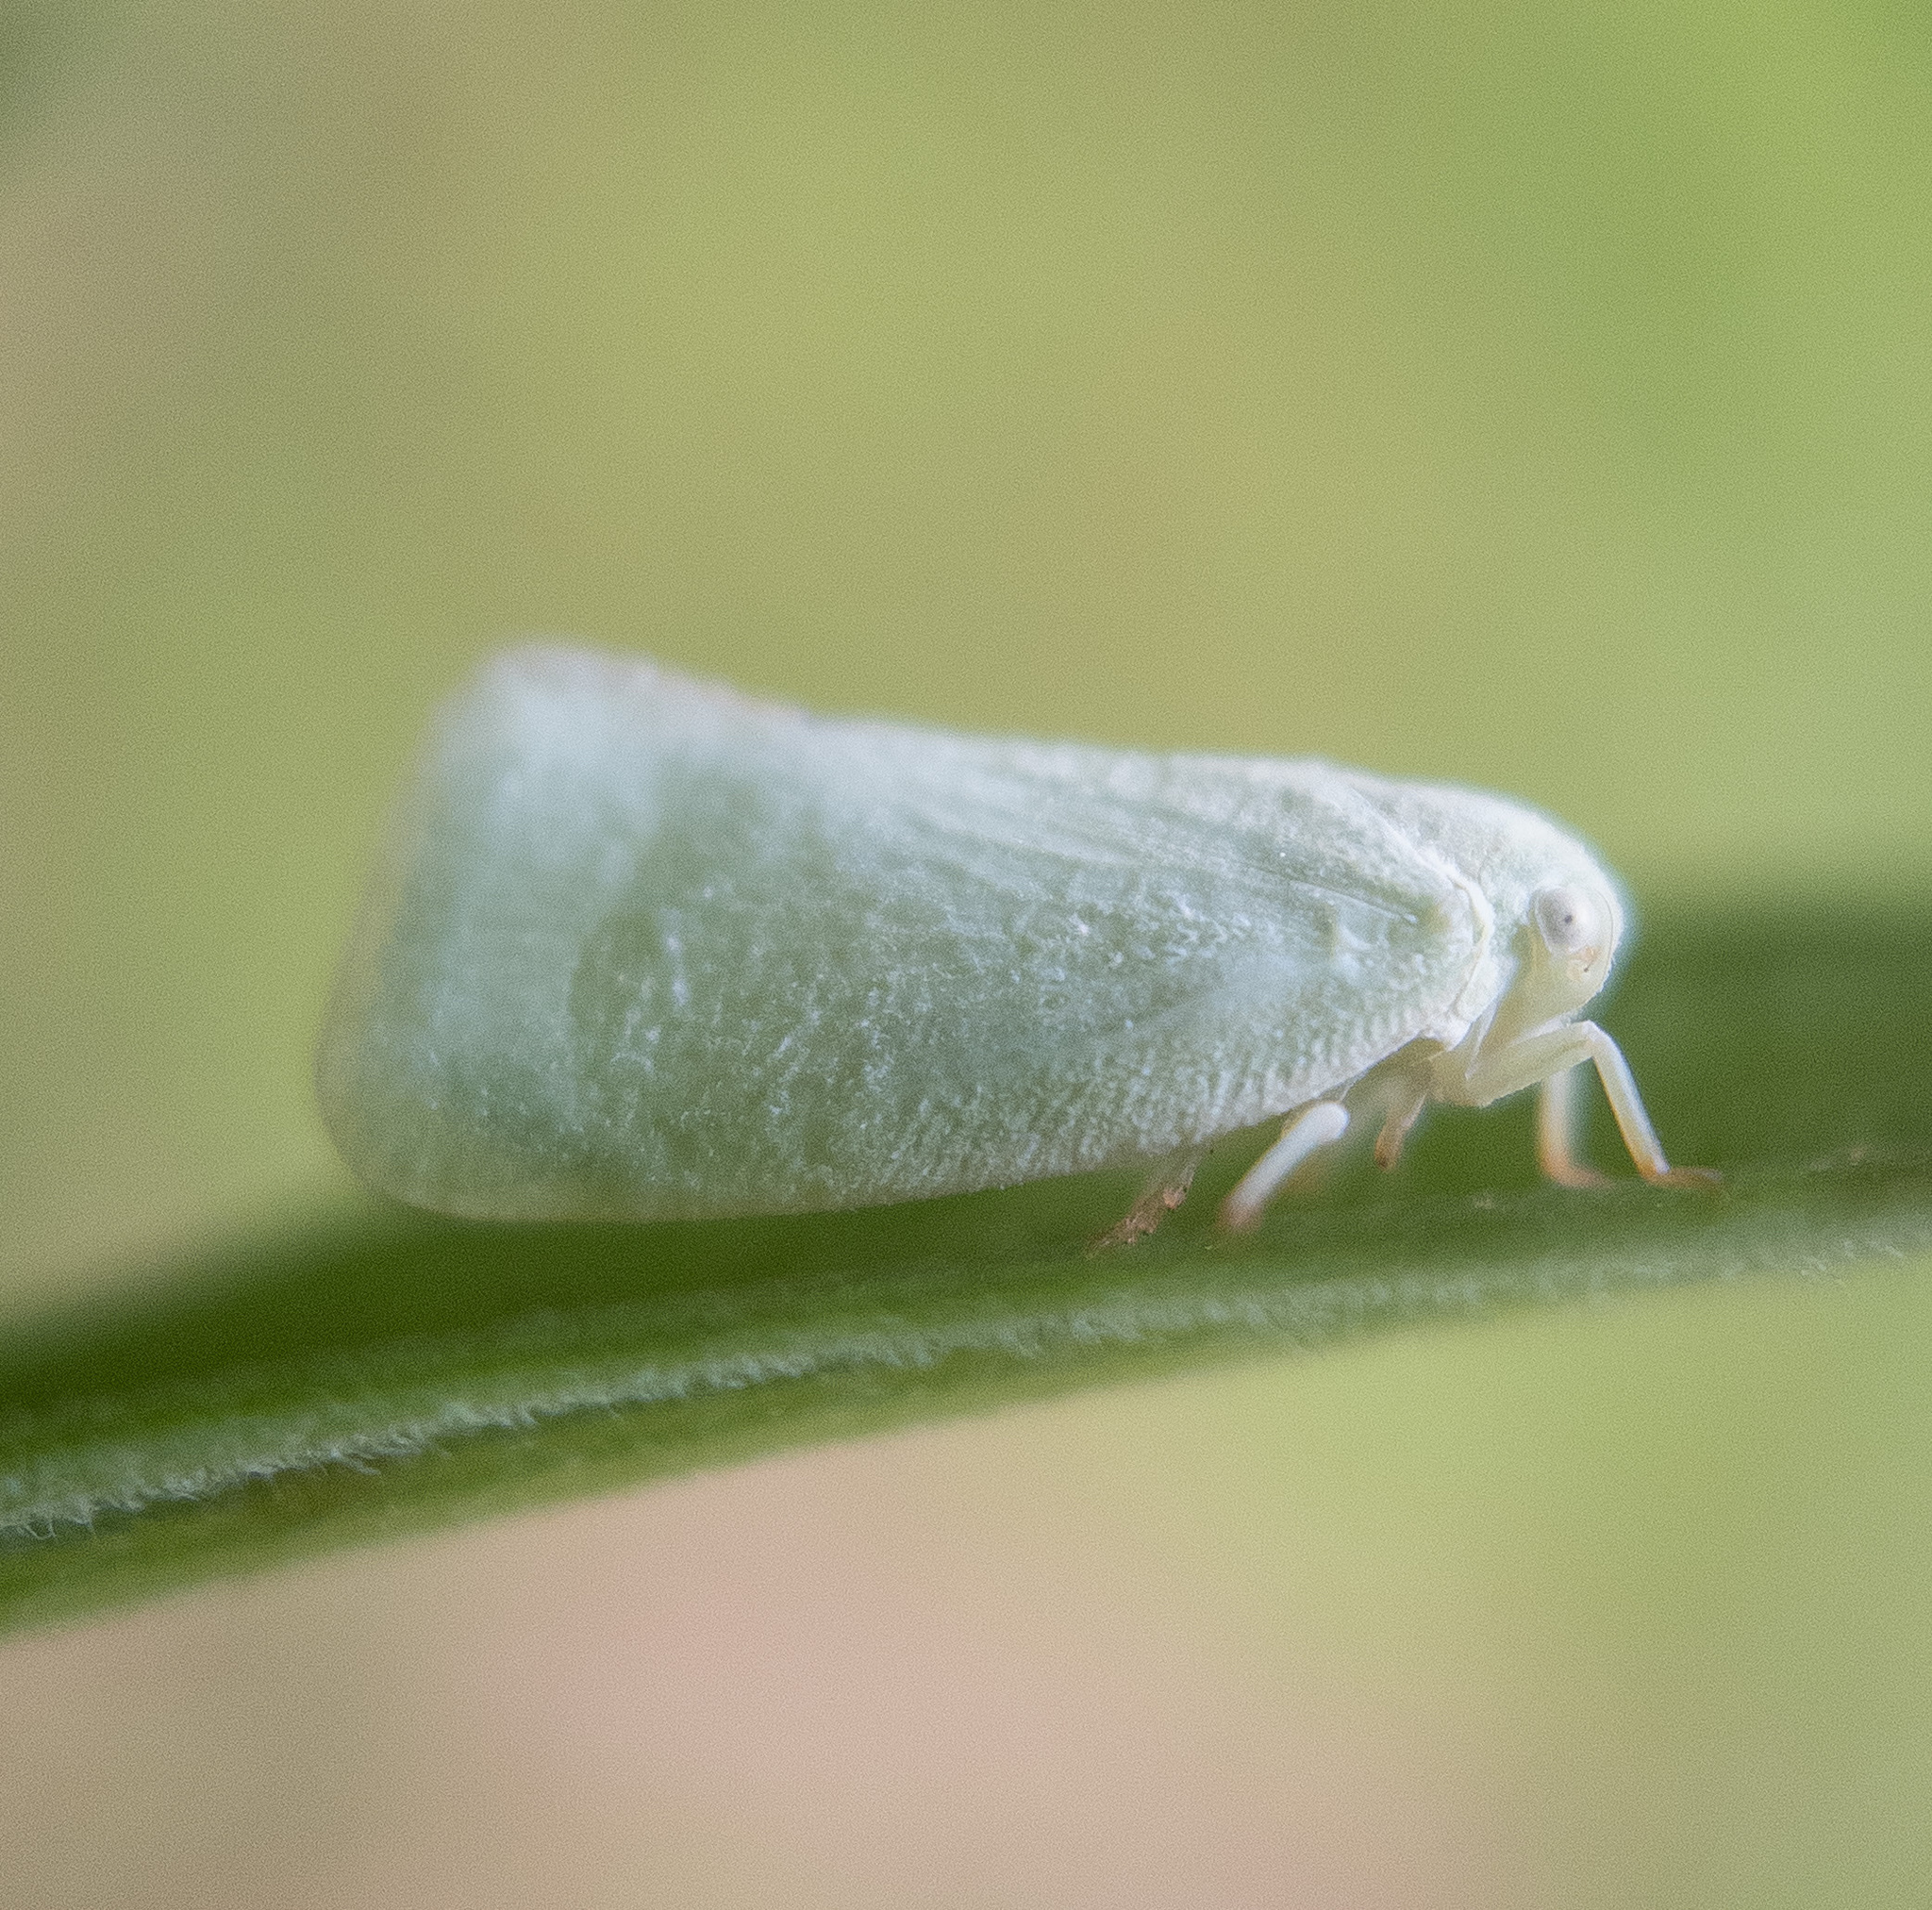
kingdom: Animalia
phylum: Arthropoda
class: Insecta
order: Hemiptera
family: Flatidae
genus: Flatormenis
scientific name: Flatormenis proxima
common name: Northern flatid planthopper
